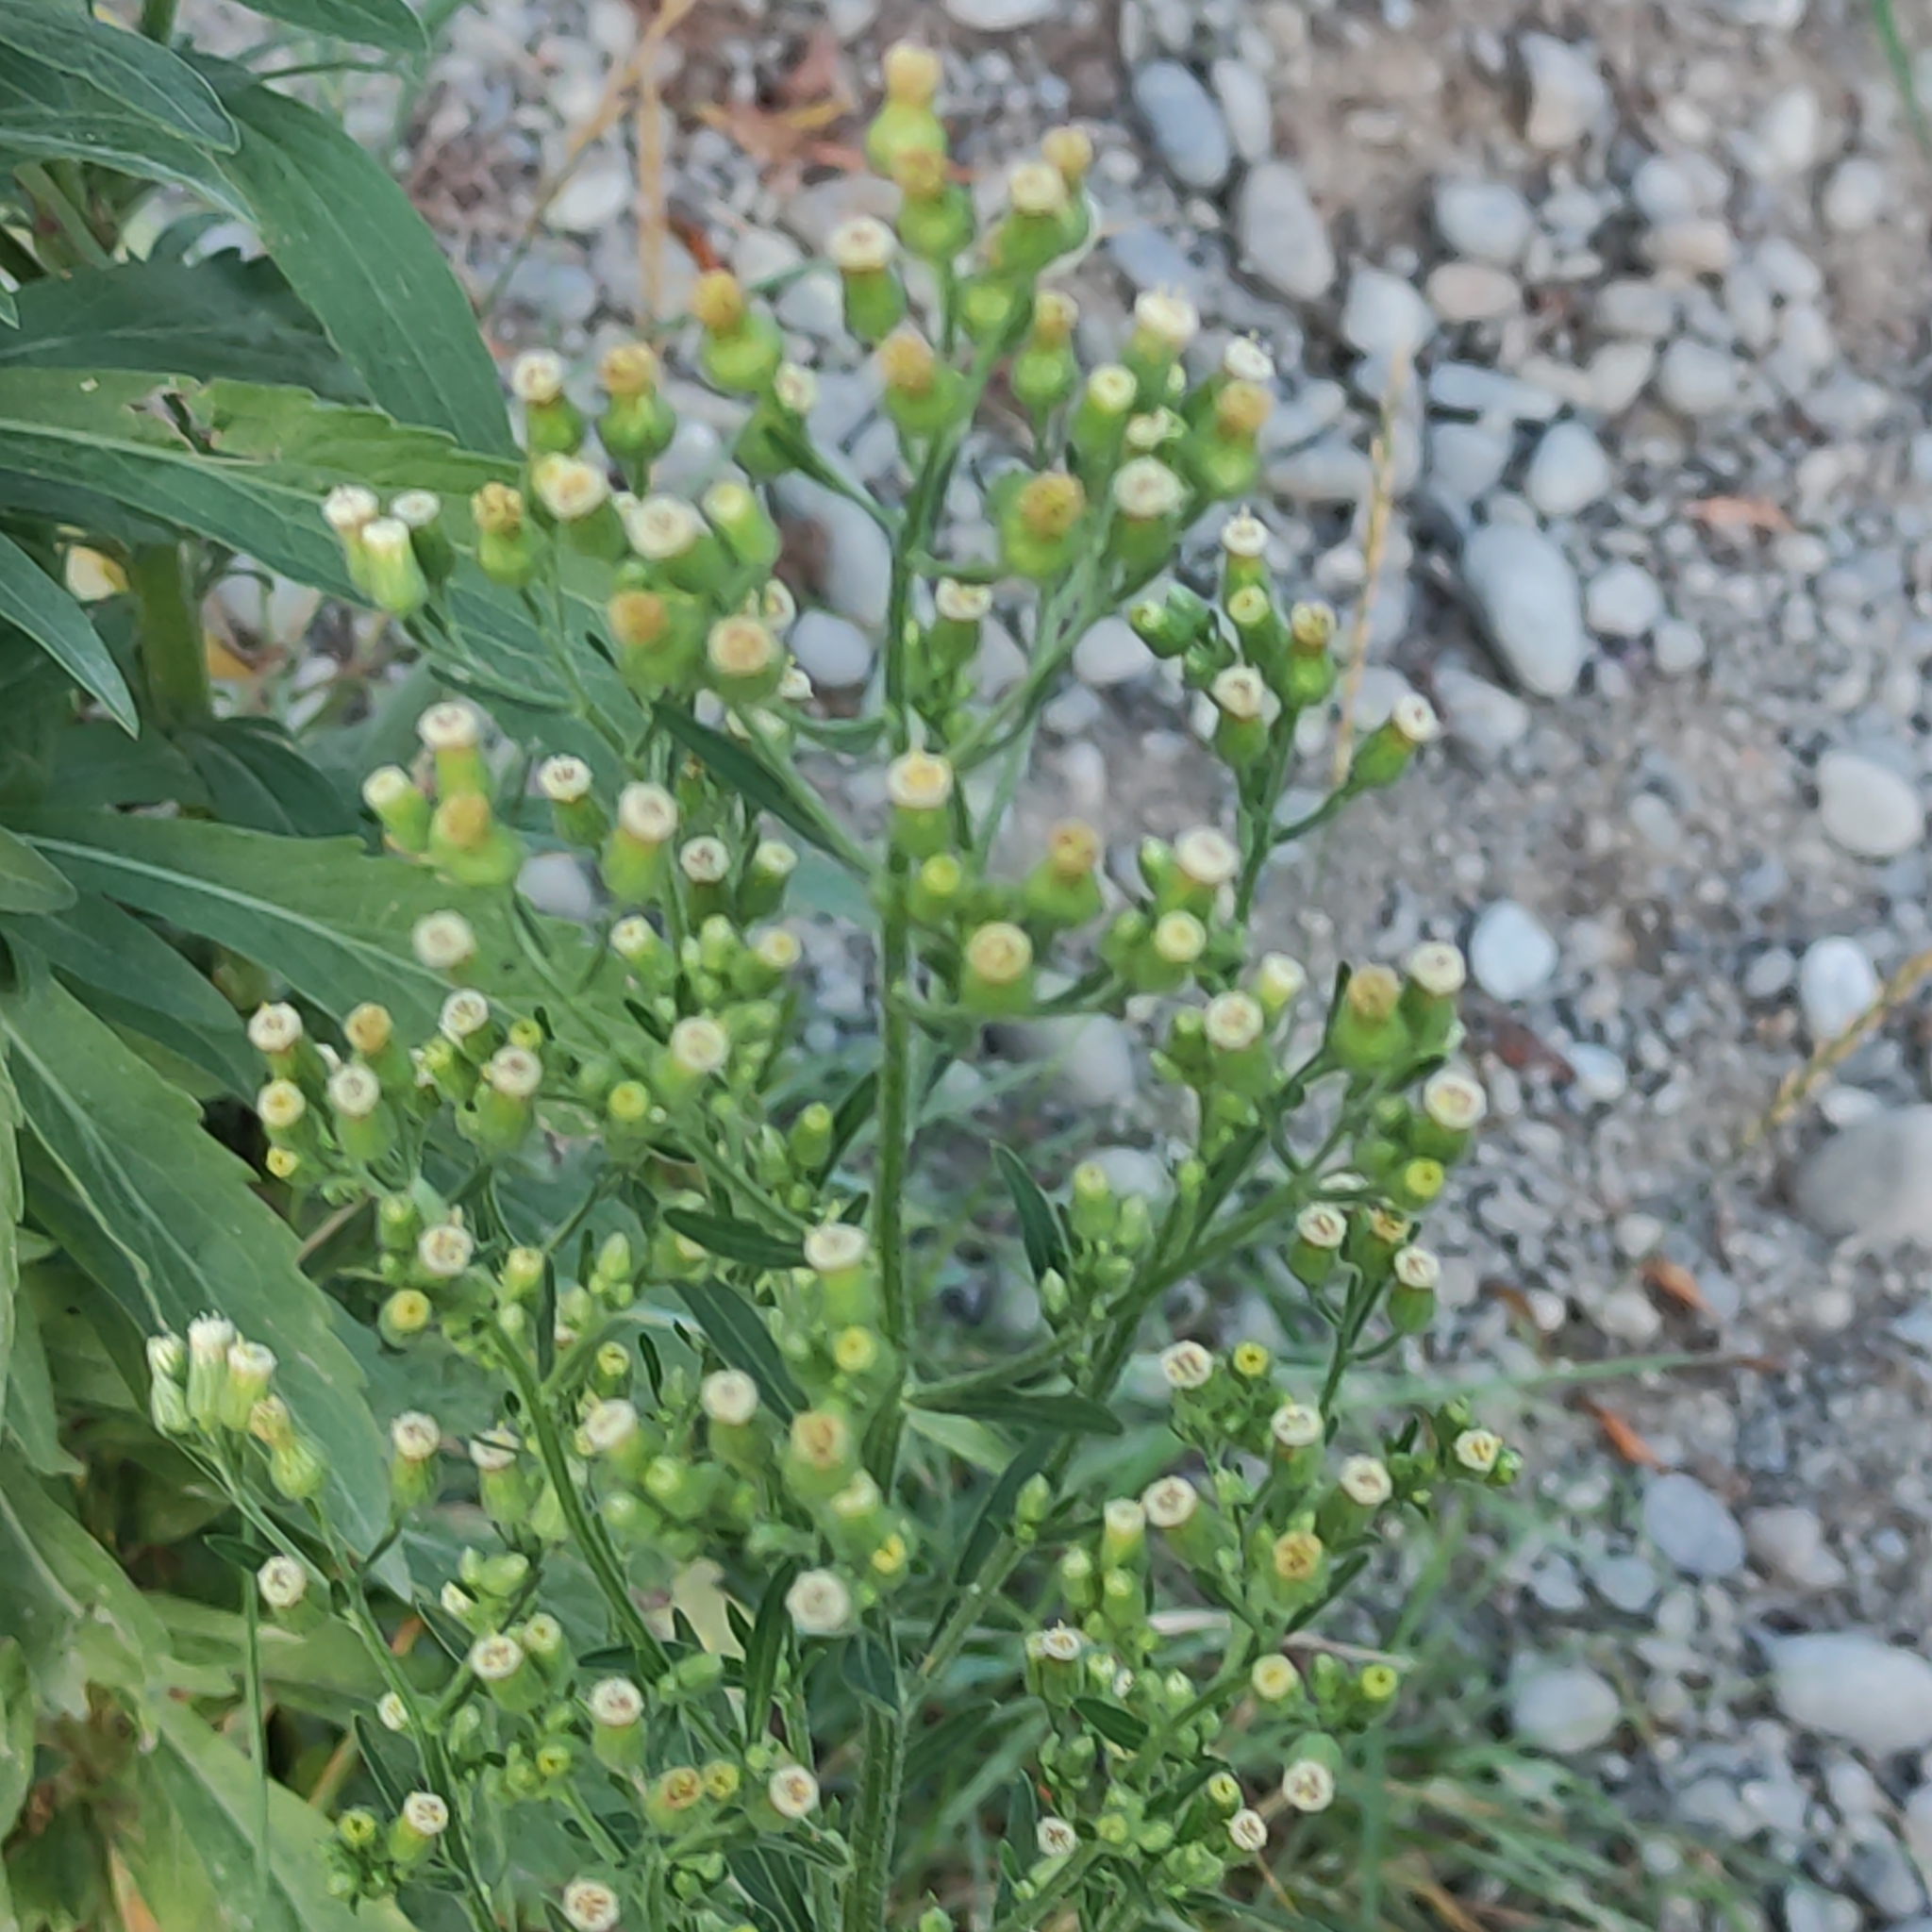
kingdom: Plantae
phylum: Tracheophyta
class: Magnoliopsida
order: Asterales
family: Asteraceae
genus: Erigeron
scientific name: Erigeron sumatrensis
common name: Daisy
